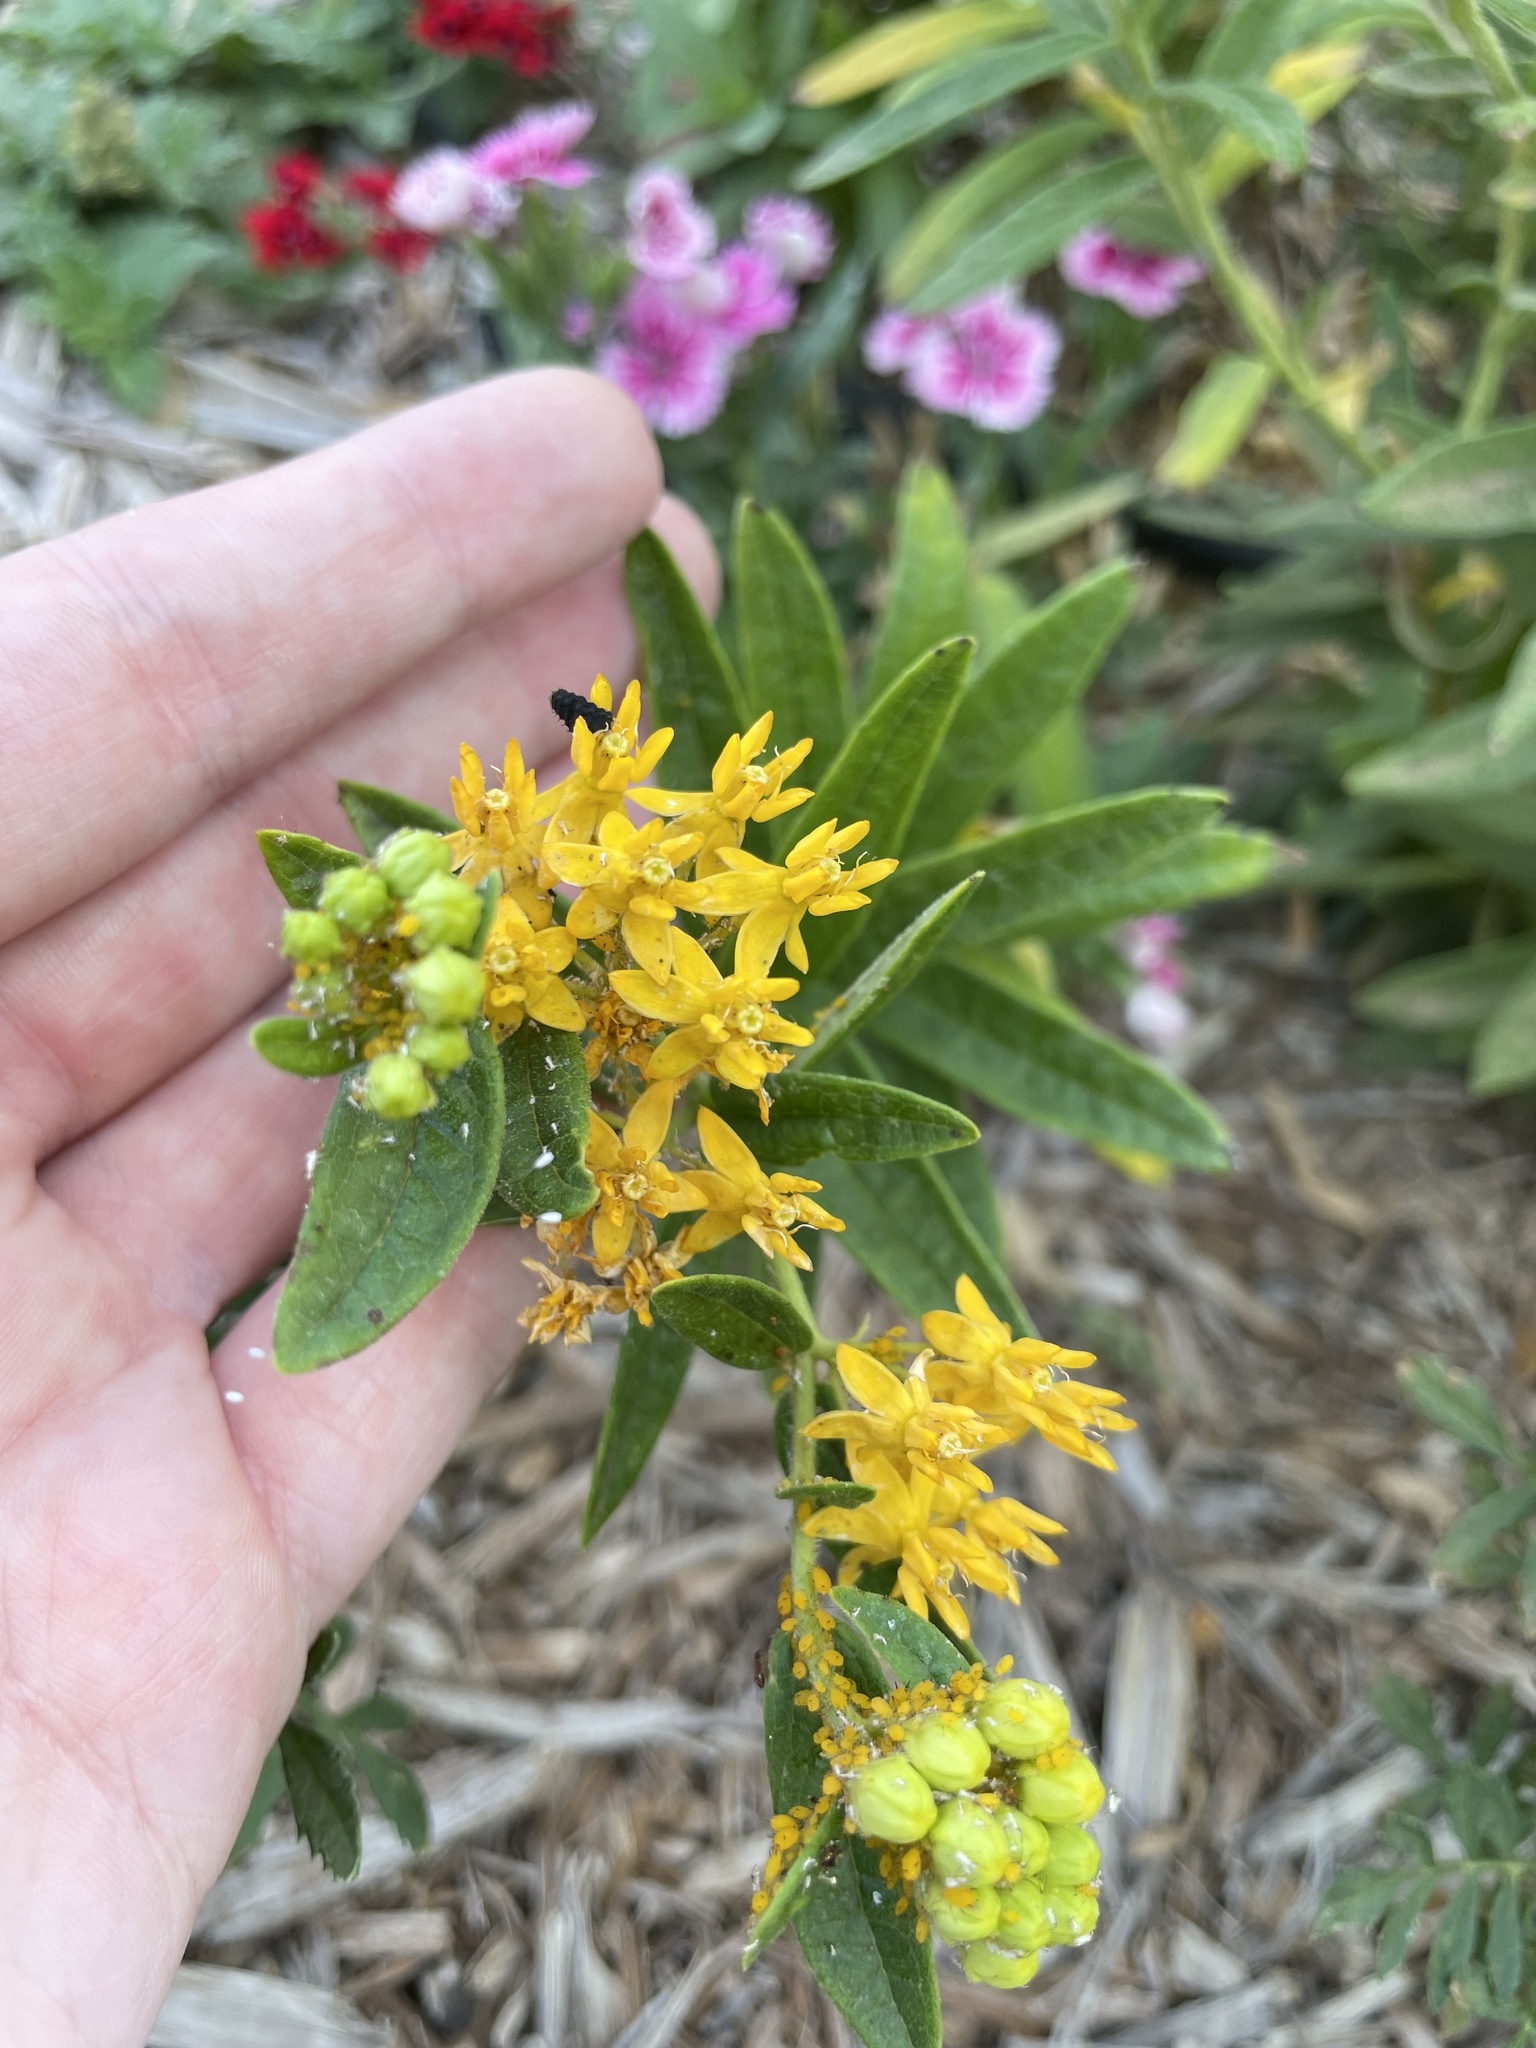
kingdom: Animalia
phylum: Arthropoda
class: Insecta
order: Hemiptera
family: Aphididae
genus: Aphis
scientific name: Aphis nerii
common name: Oleander aphid
